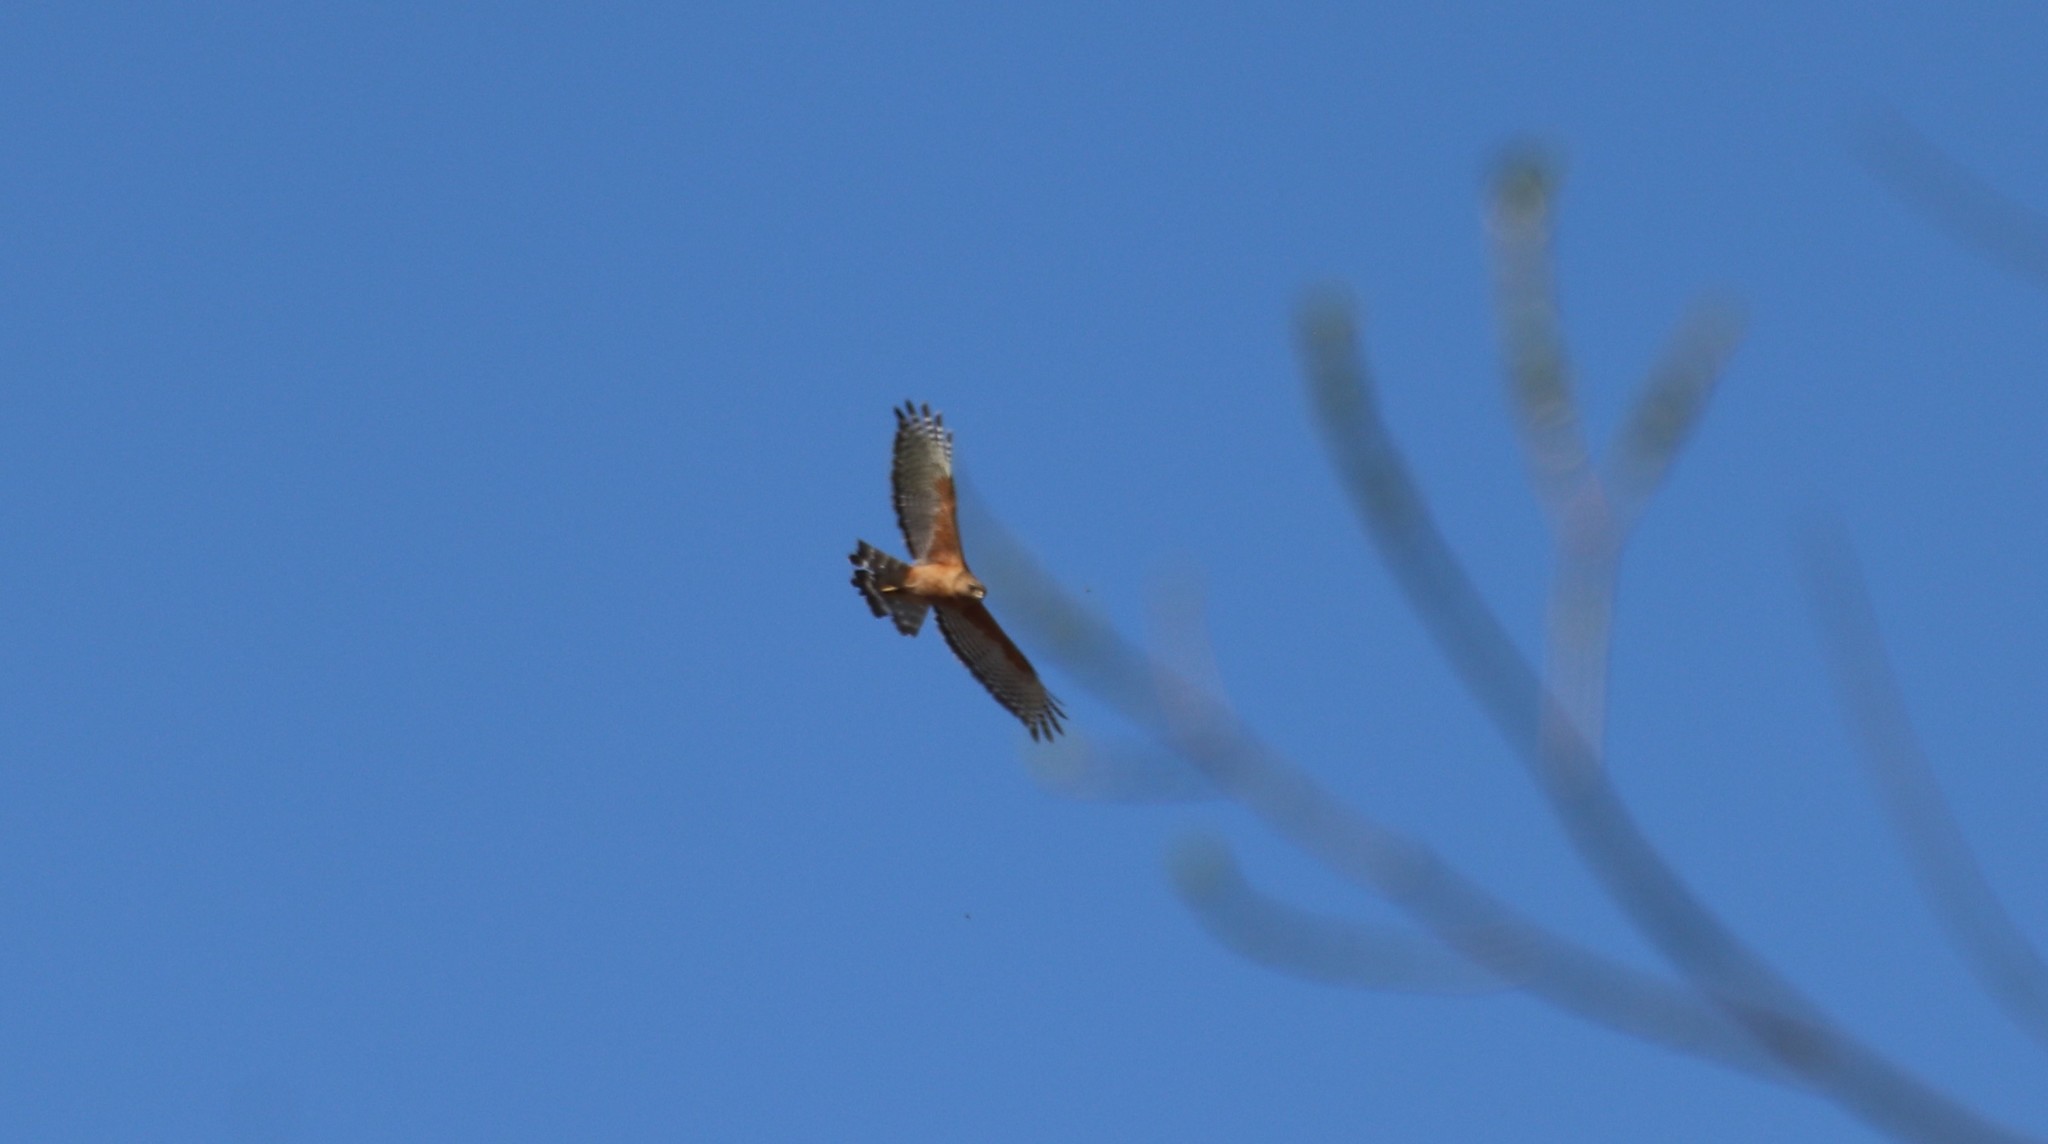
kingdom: Animalia
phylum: Chordata
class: Aves
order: Accipitriformes
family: Accipitridae
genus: Buteo
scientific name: Buteo lineatus
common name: Red-shouldered hawk
